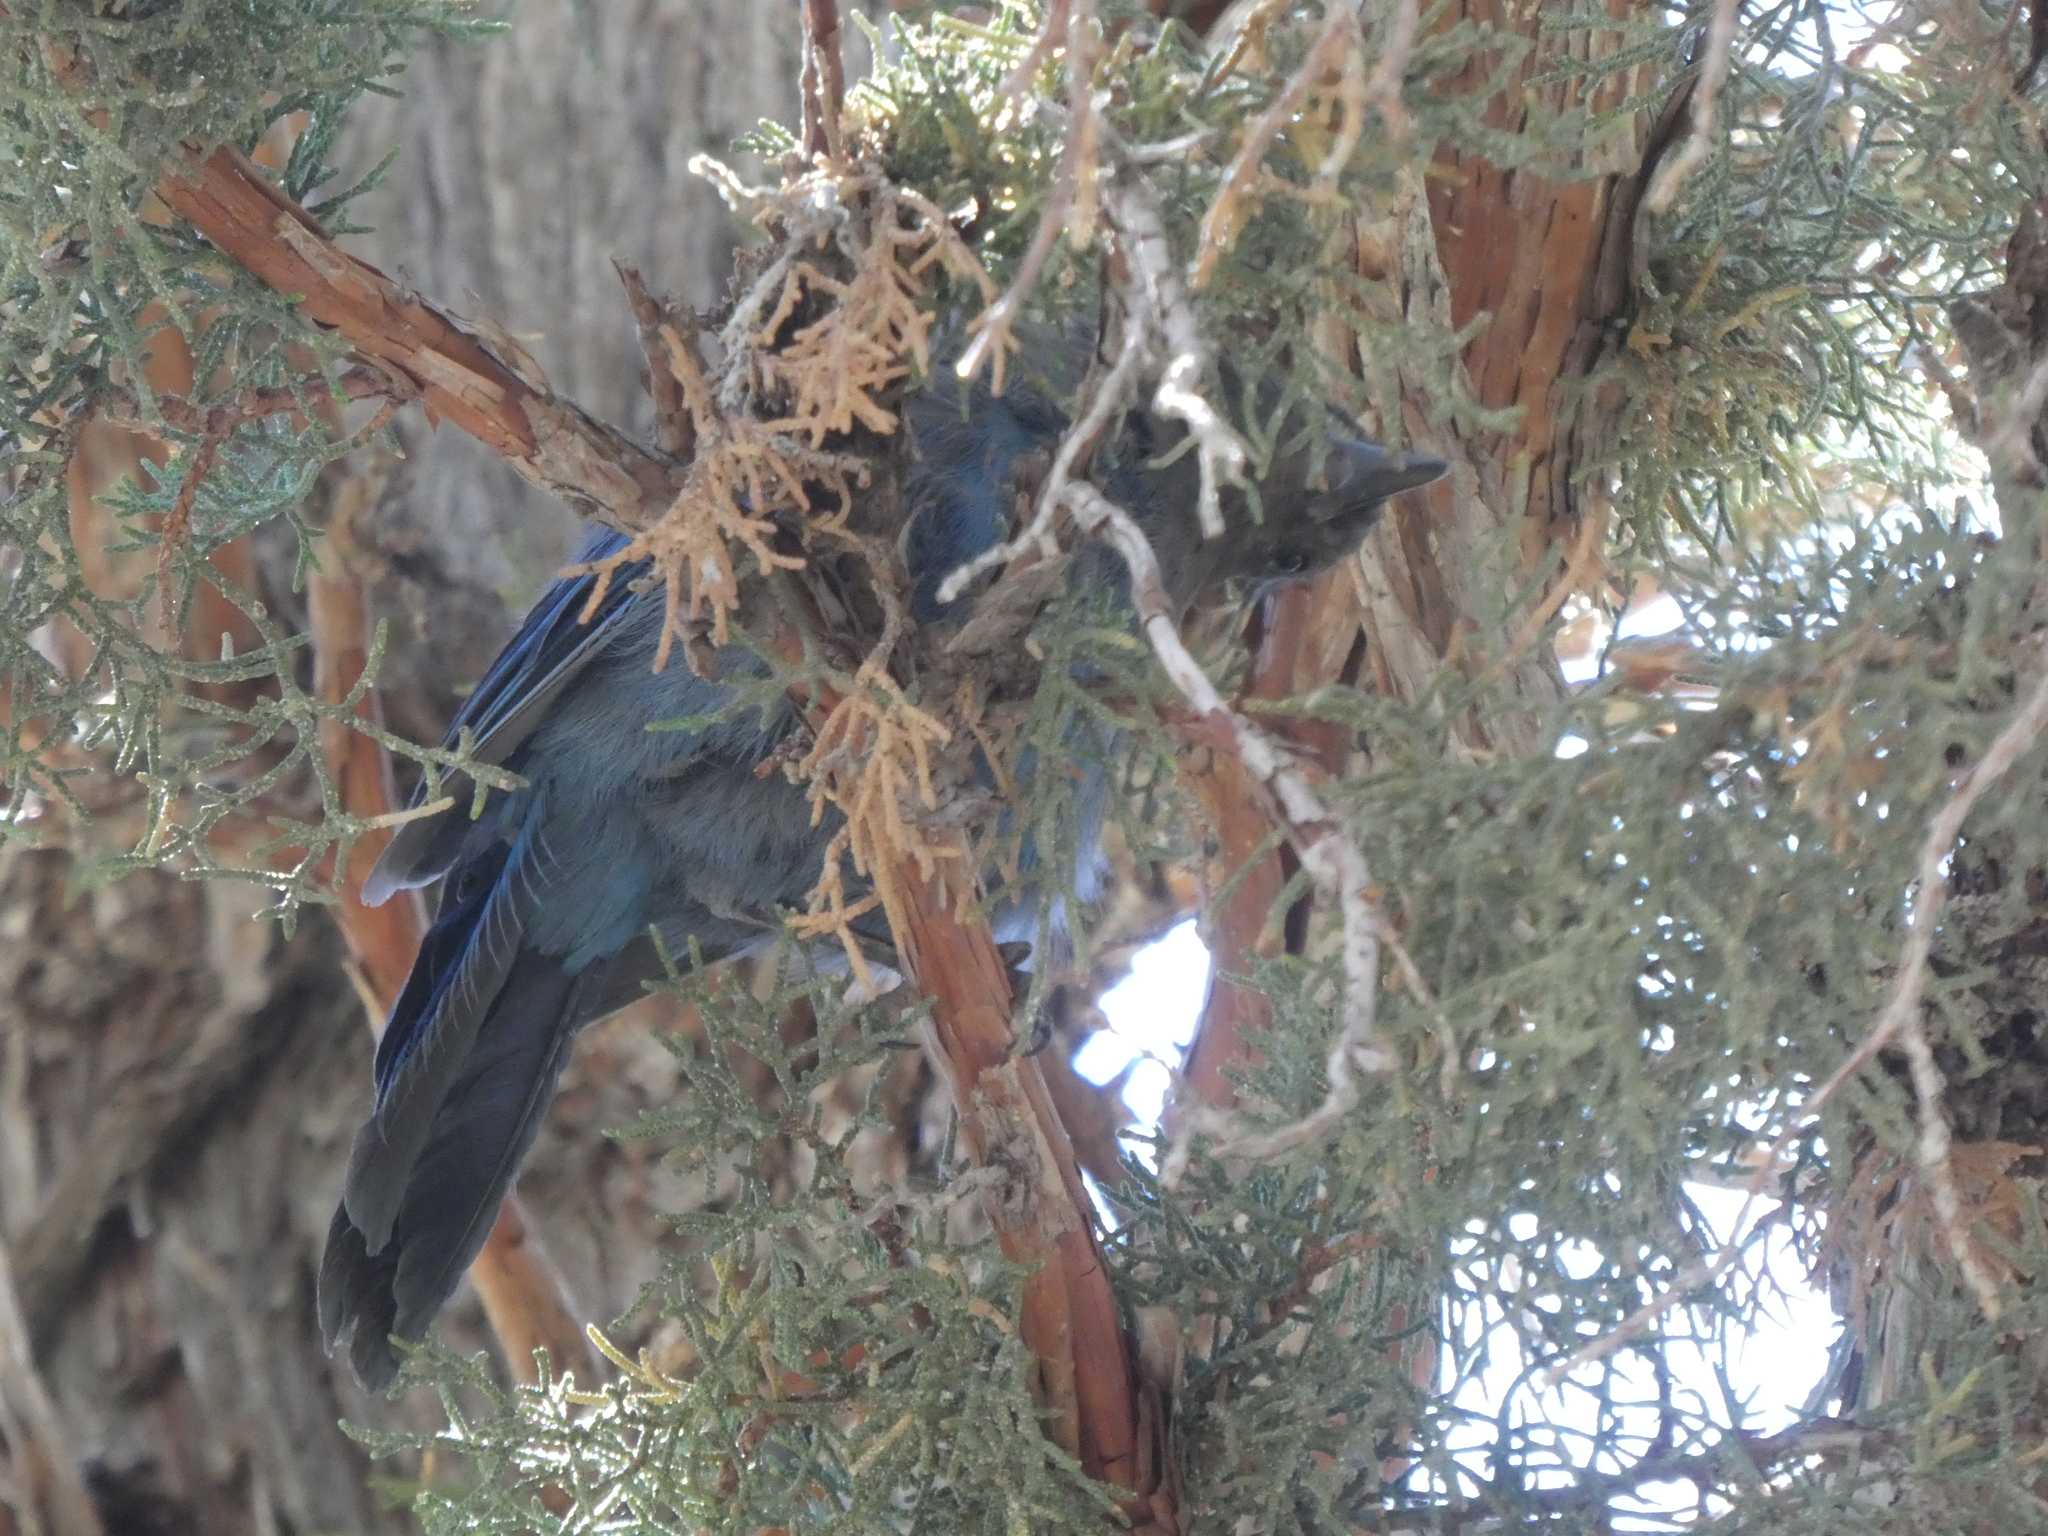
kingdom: Animalia
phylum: Chordata
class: Aves
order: Passeriformes
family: Corvidae
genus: Cyanocitta
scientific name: Cyanocitta stelleri
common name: Steller's jay
